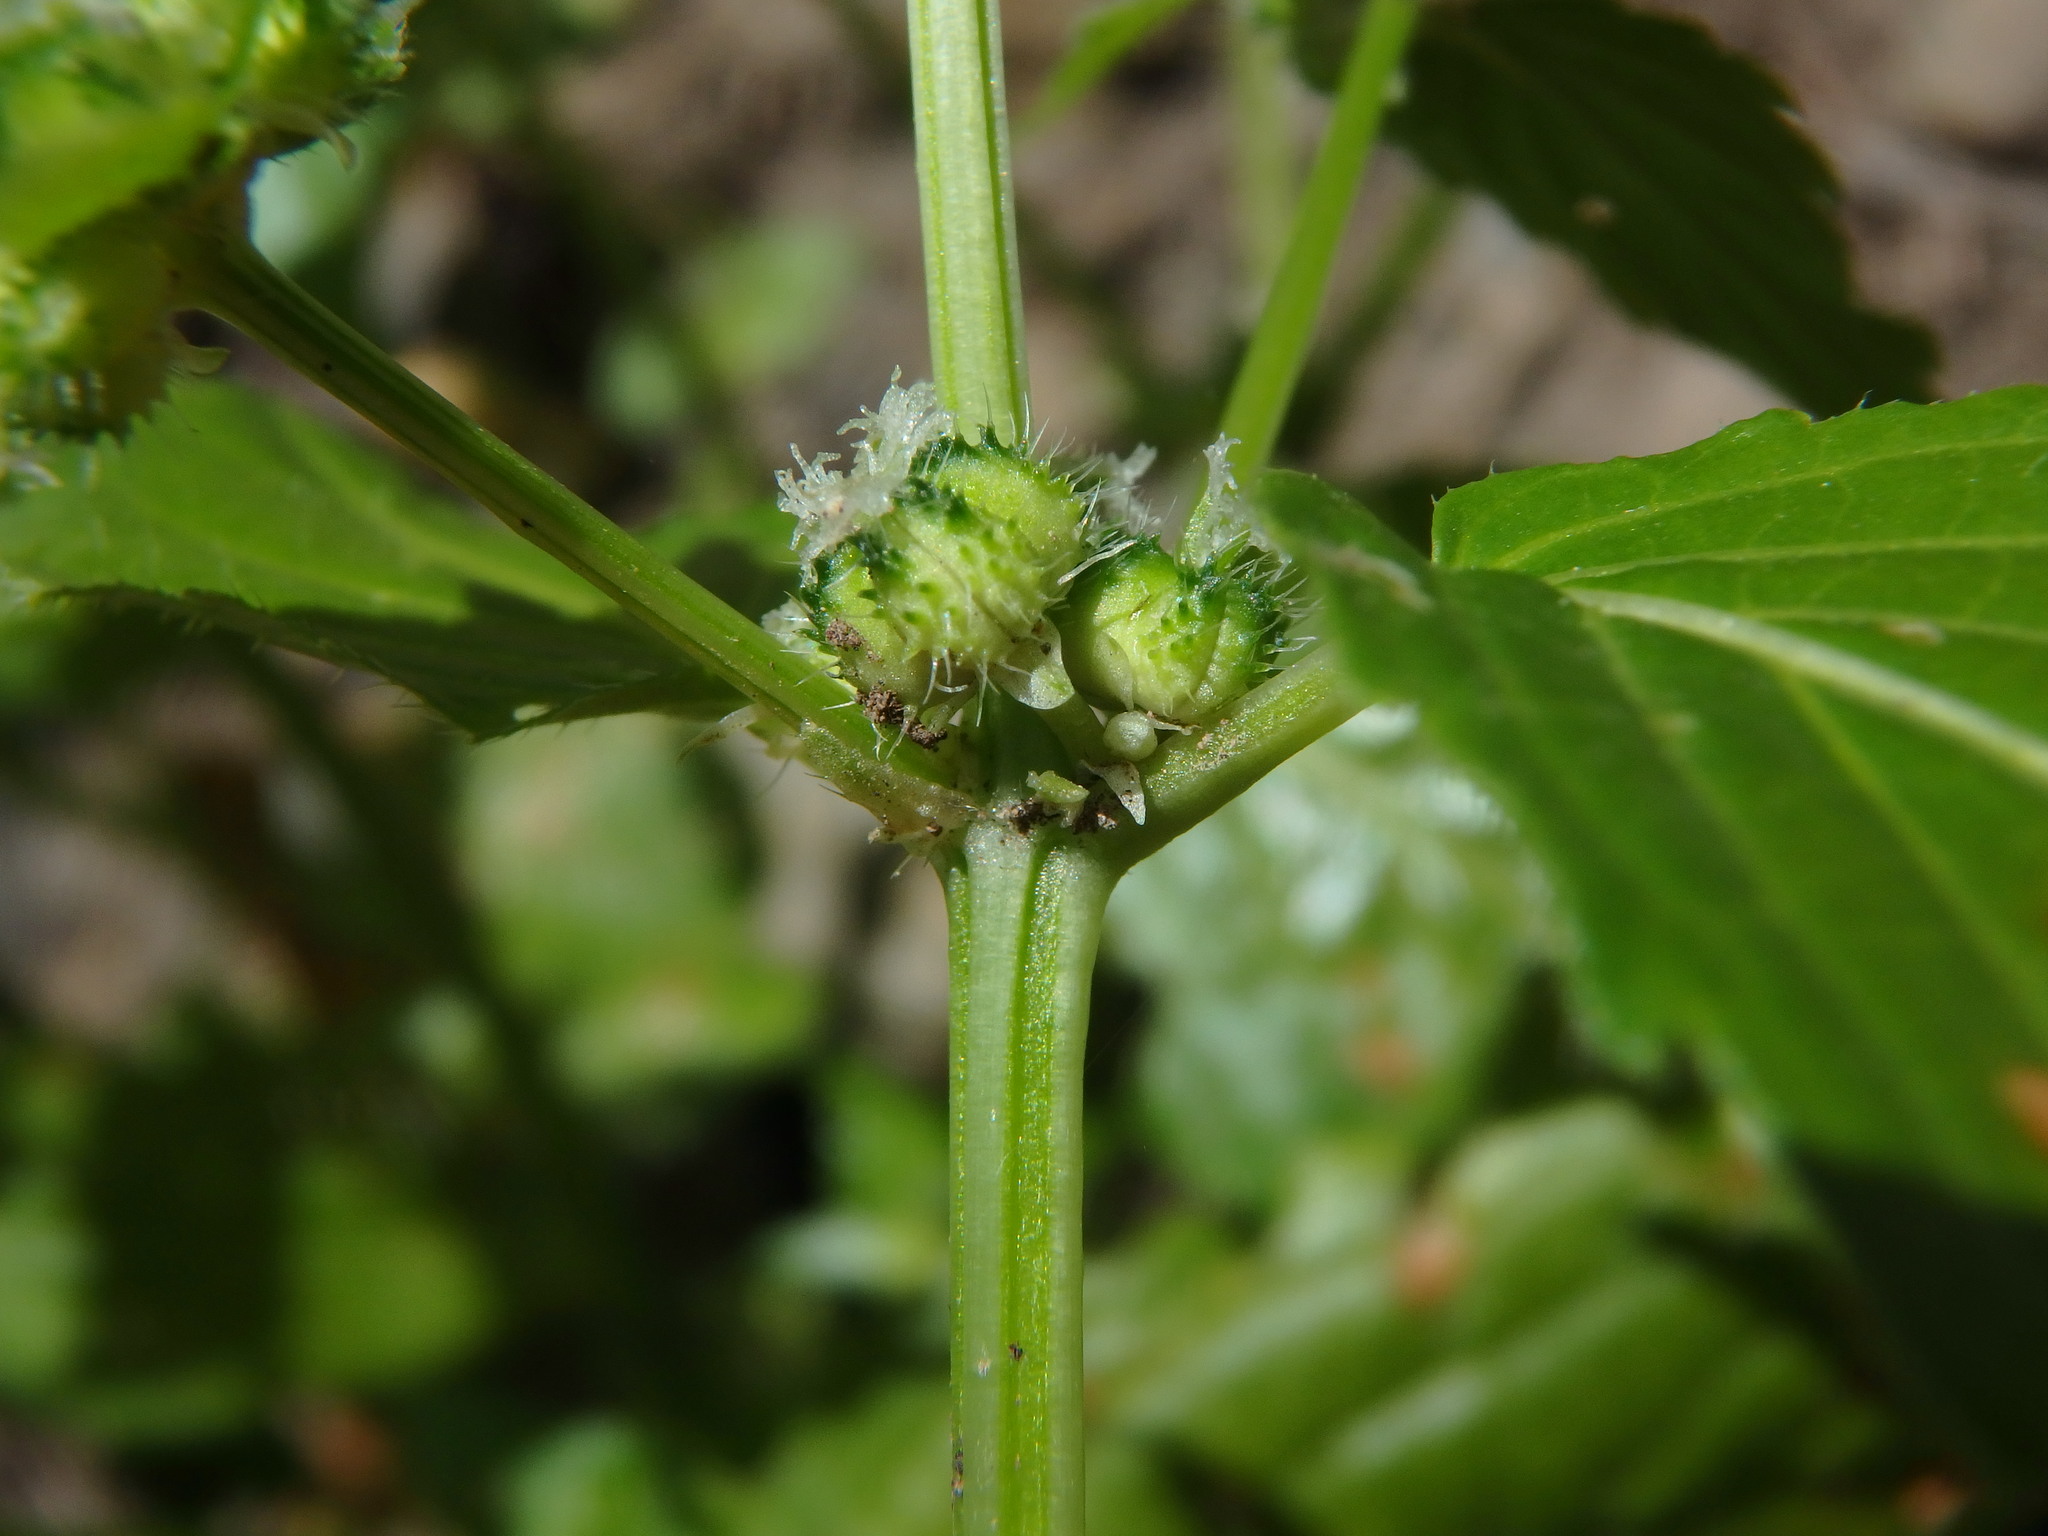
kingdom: Plantae
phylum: Tracheophyta
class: Magnoliopsida
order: Malpighiales
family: Euphorbiaceae
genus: Mercurialis
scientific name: Mercurialis canariensis
